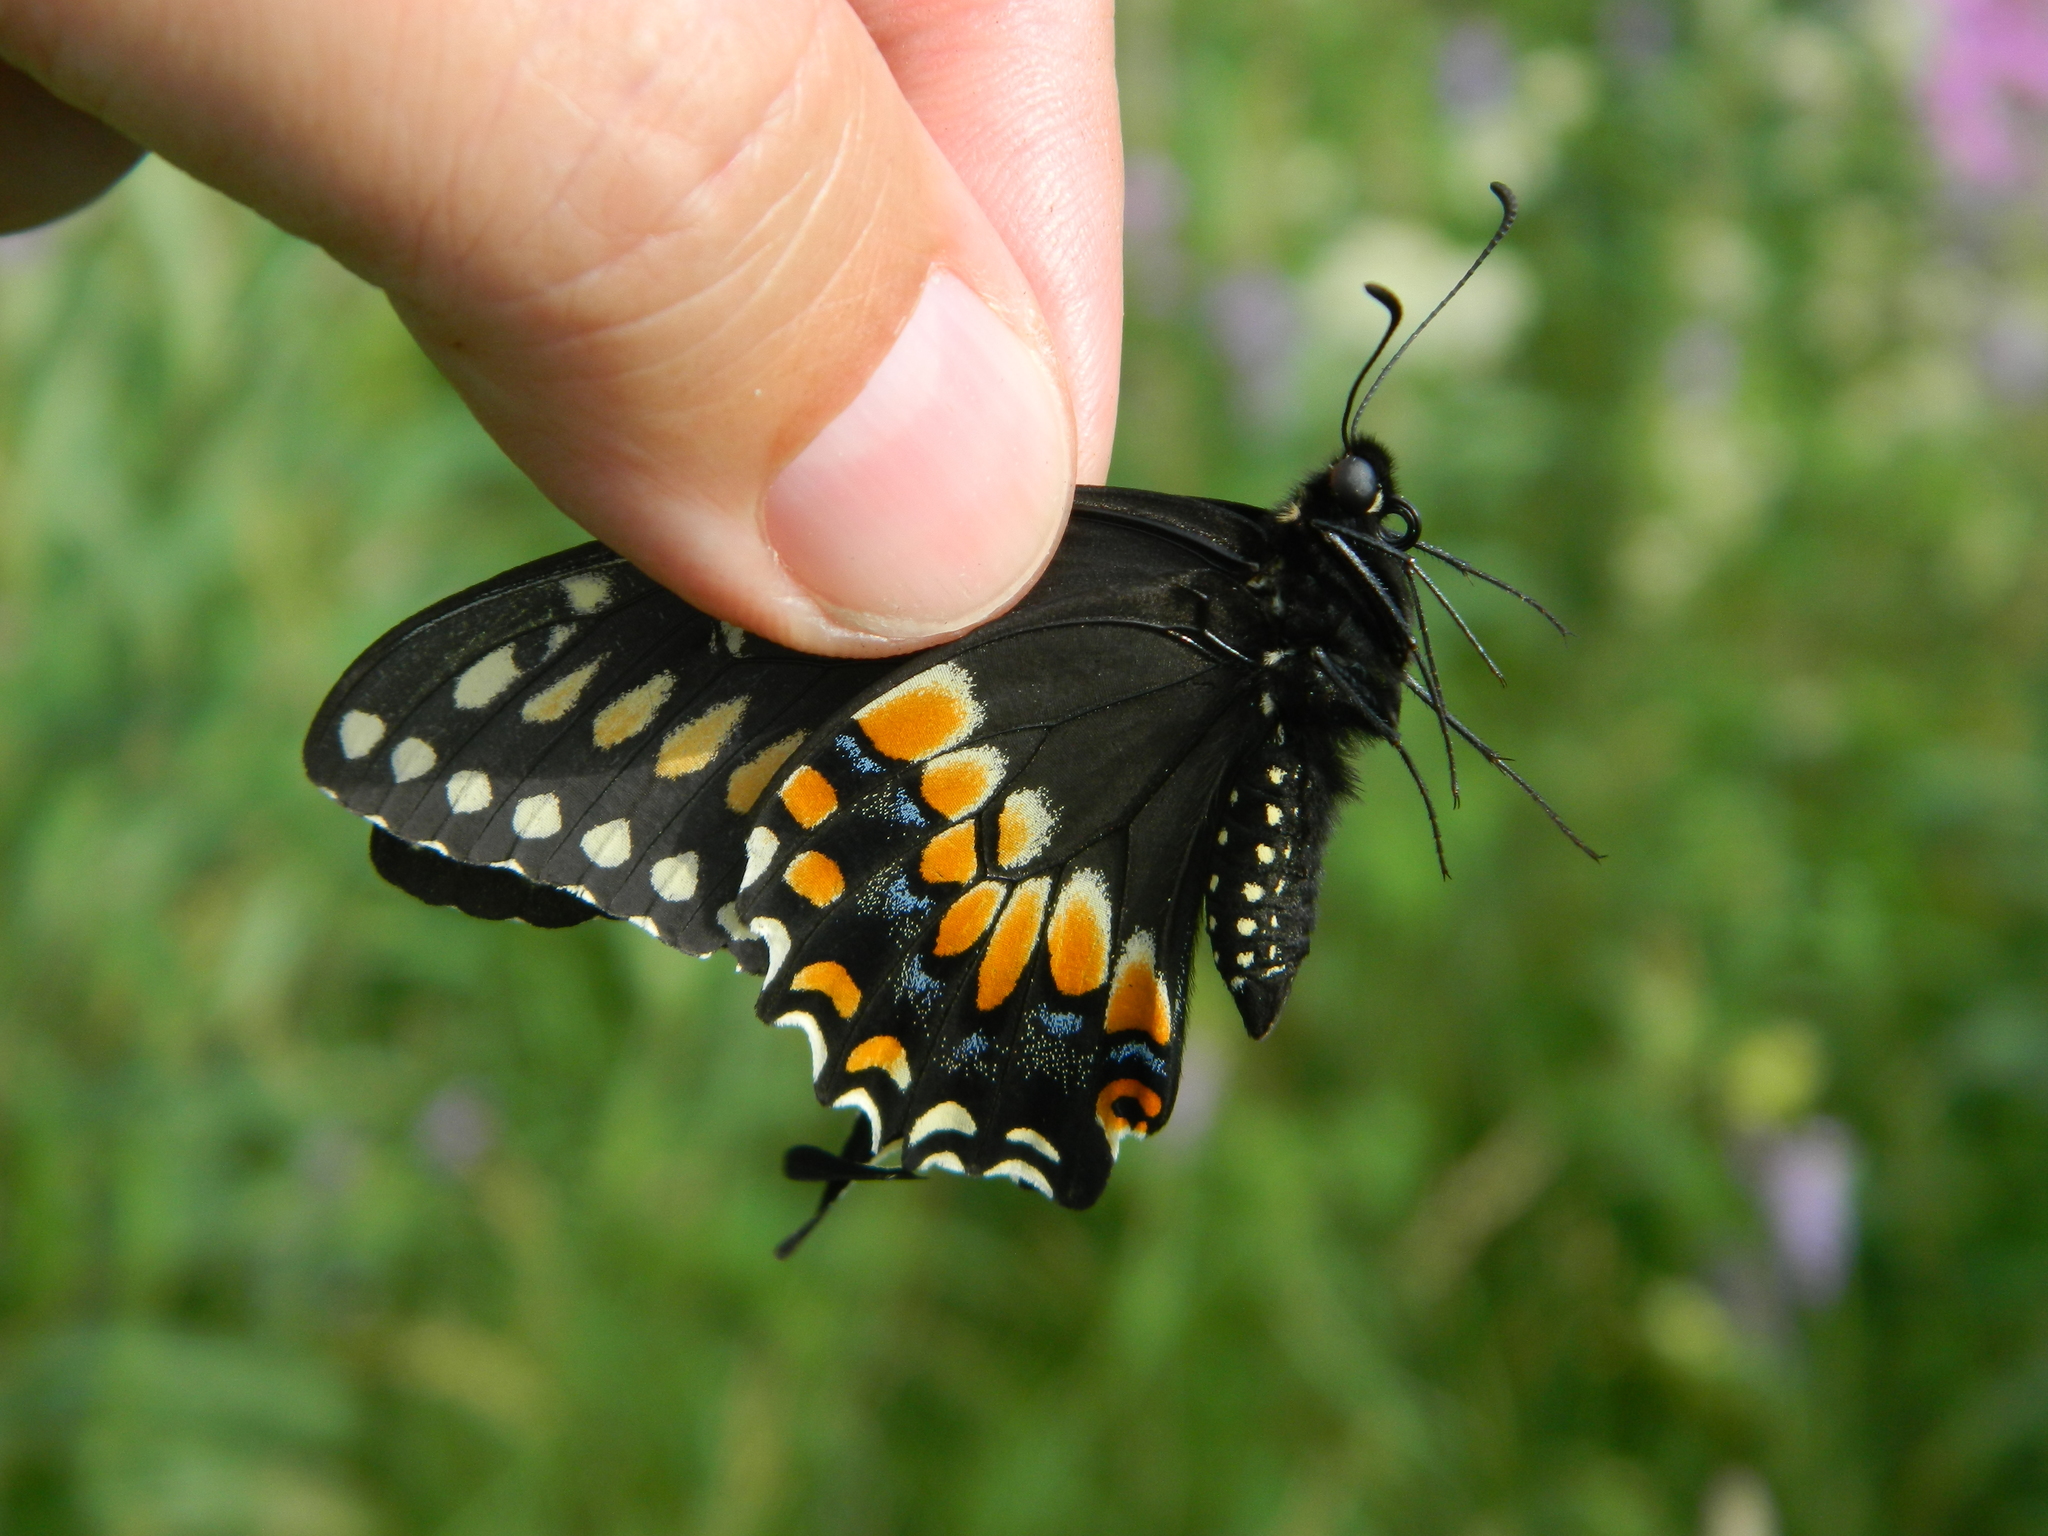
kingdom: Animalia
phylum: Arthropoda
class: Insecta
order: Lepidoptera
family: Papilionidae
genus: Papilio
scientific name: Papilio polyxenes
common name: Black swallowtail
